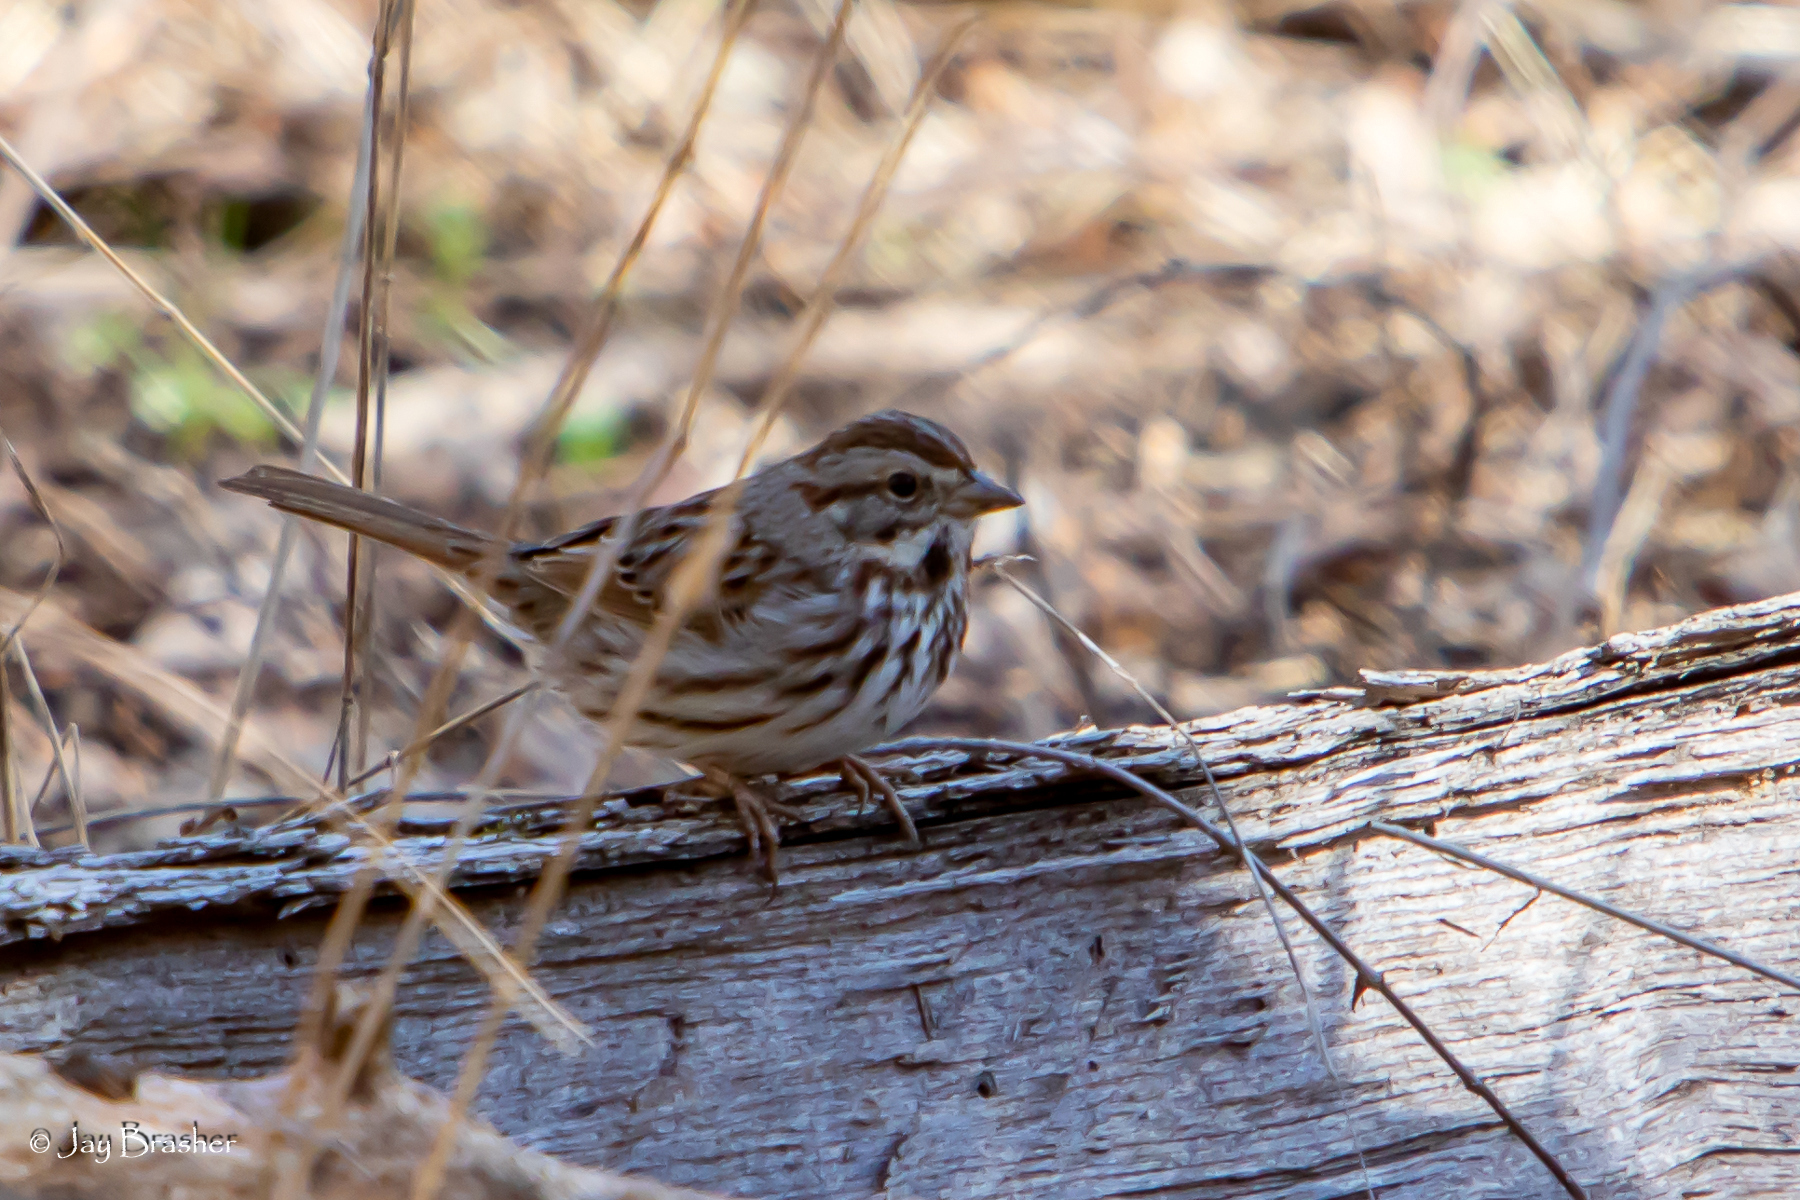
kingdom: Animalia
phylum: Chordata
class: Aves
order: Passeriformes
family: Passerellidae
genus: Melospiza
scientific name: Melospiza melodia
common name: Song sparrow
